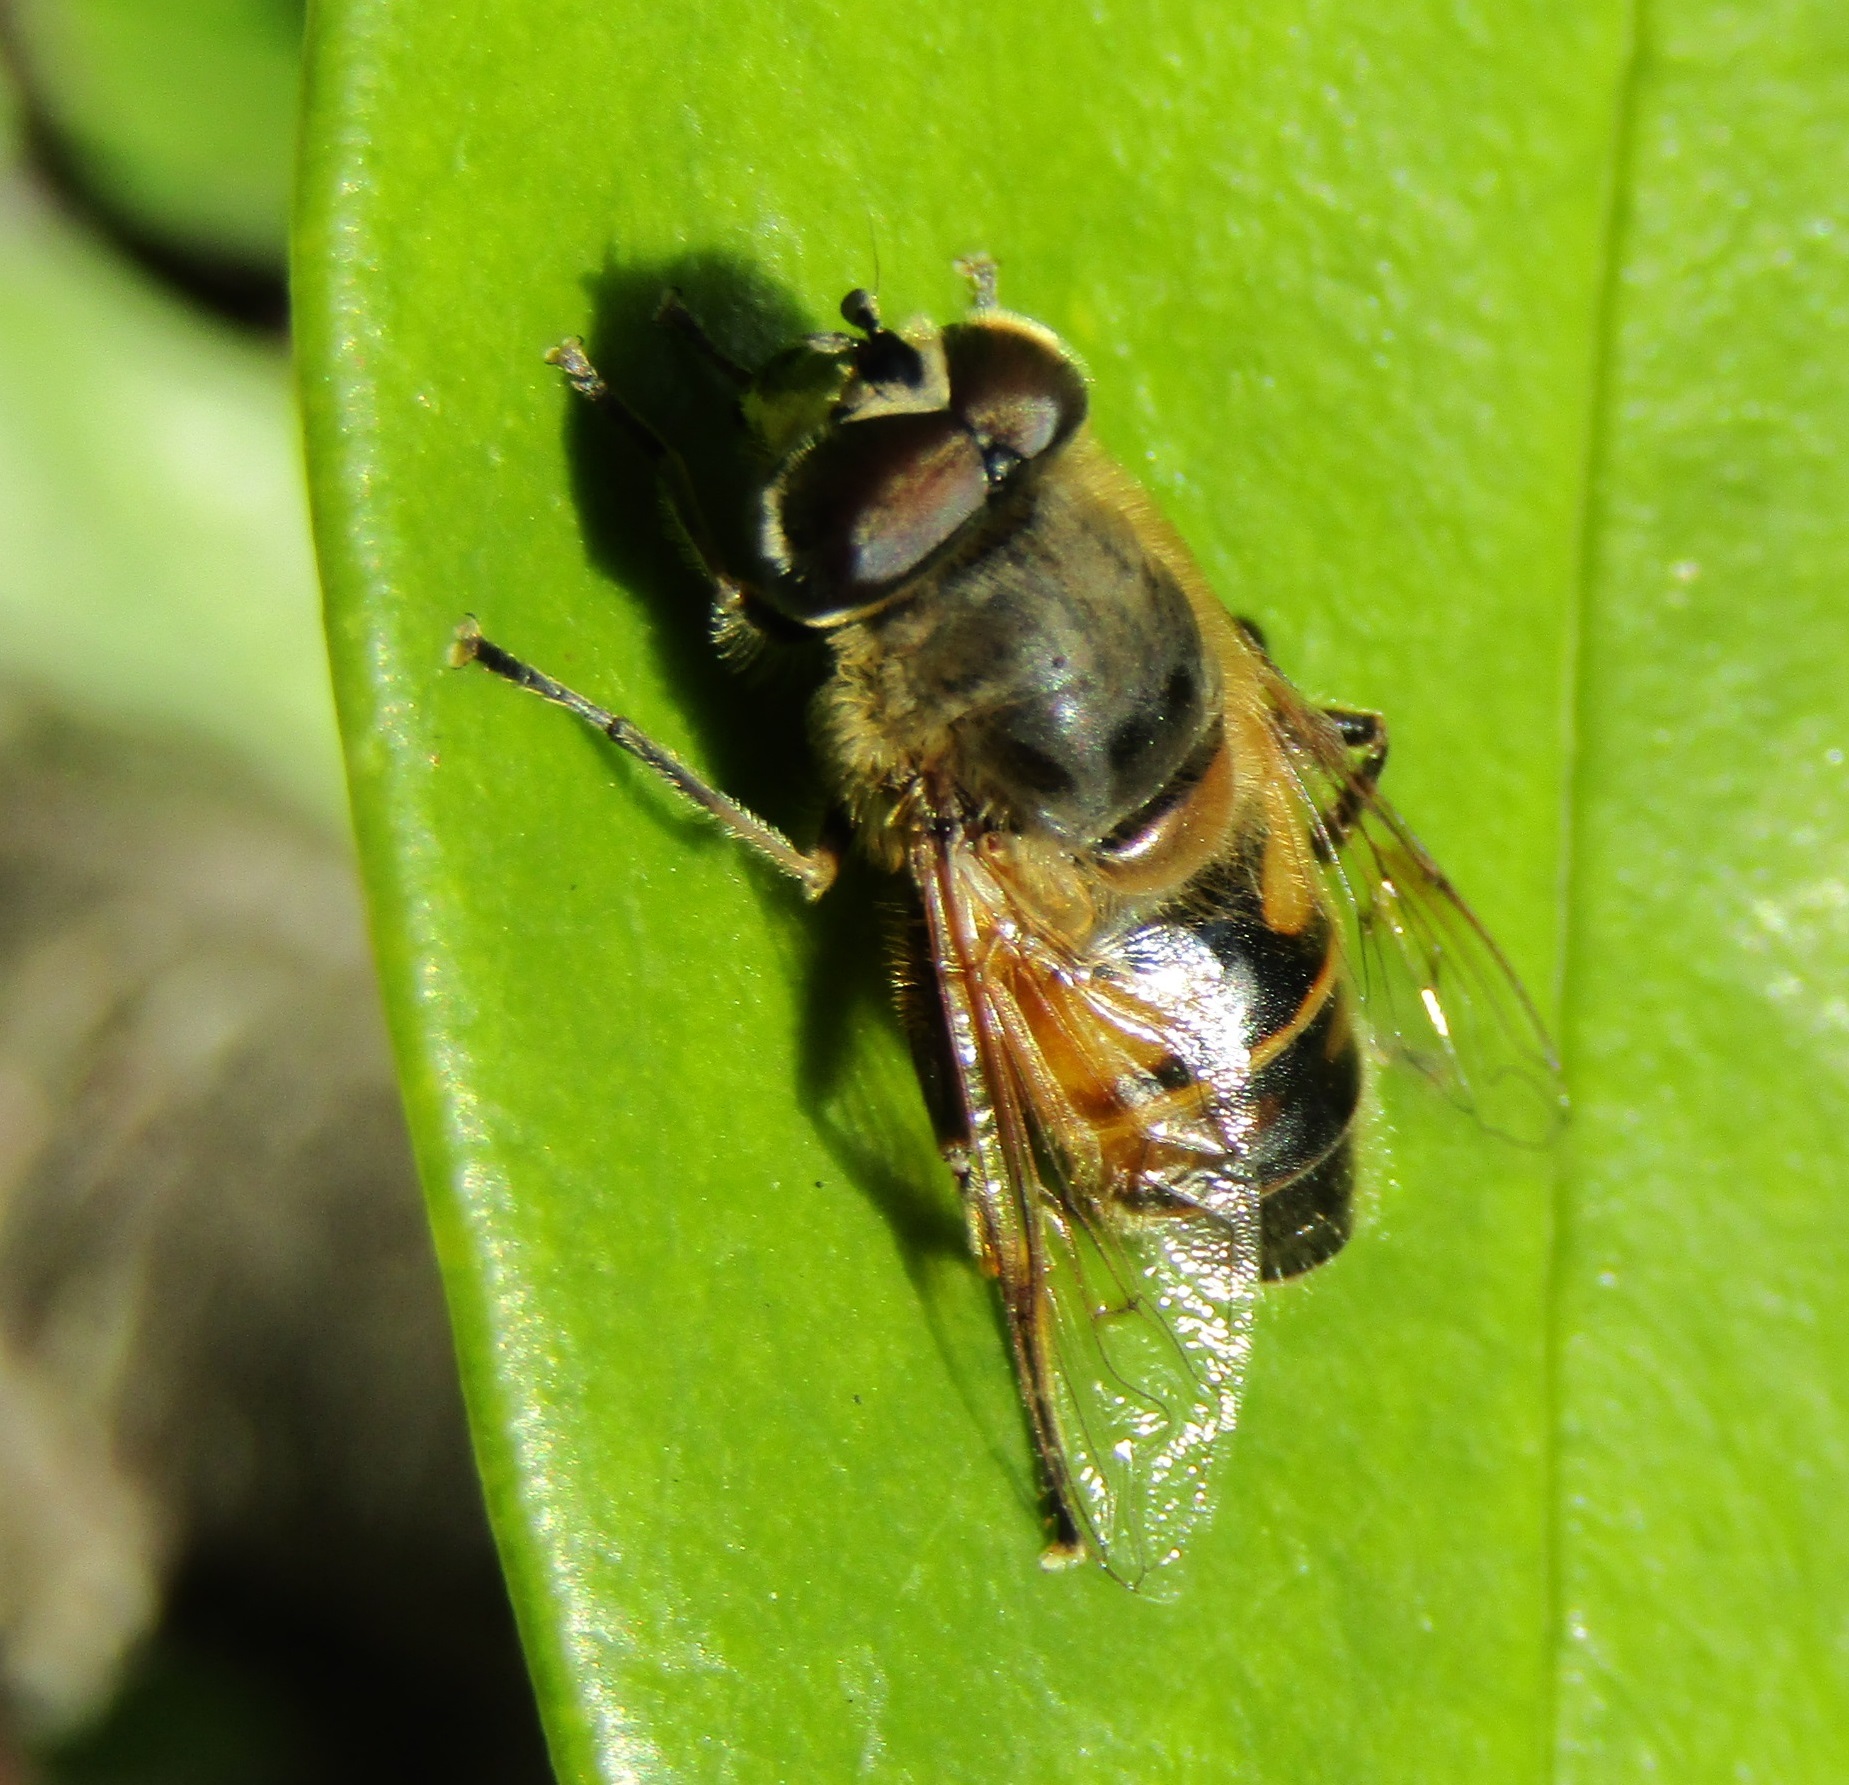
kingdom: Animalia
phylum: Arthropoda
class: Insecta
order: Diptera
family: Syrphidae
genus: Eristalis
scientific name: Eristalis tenax
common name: Drone fly
